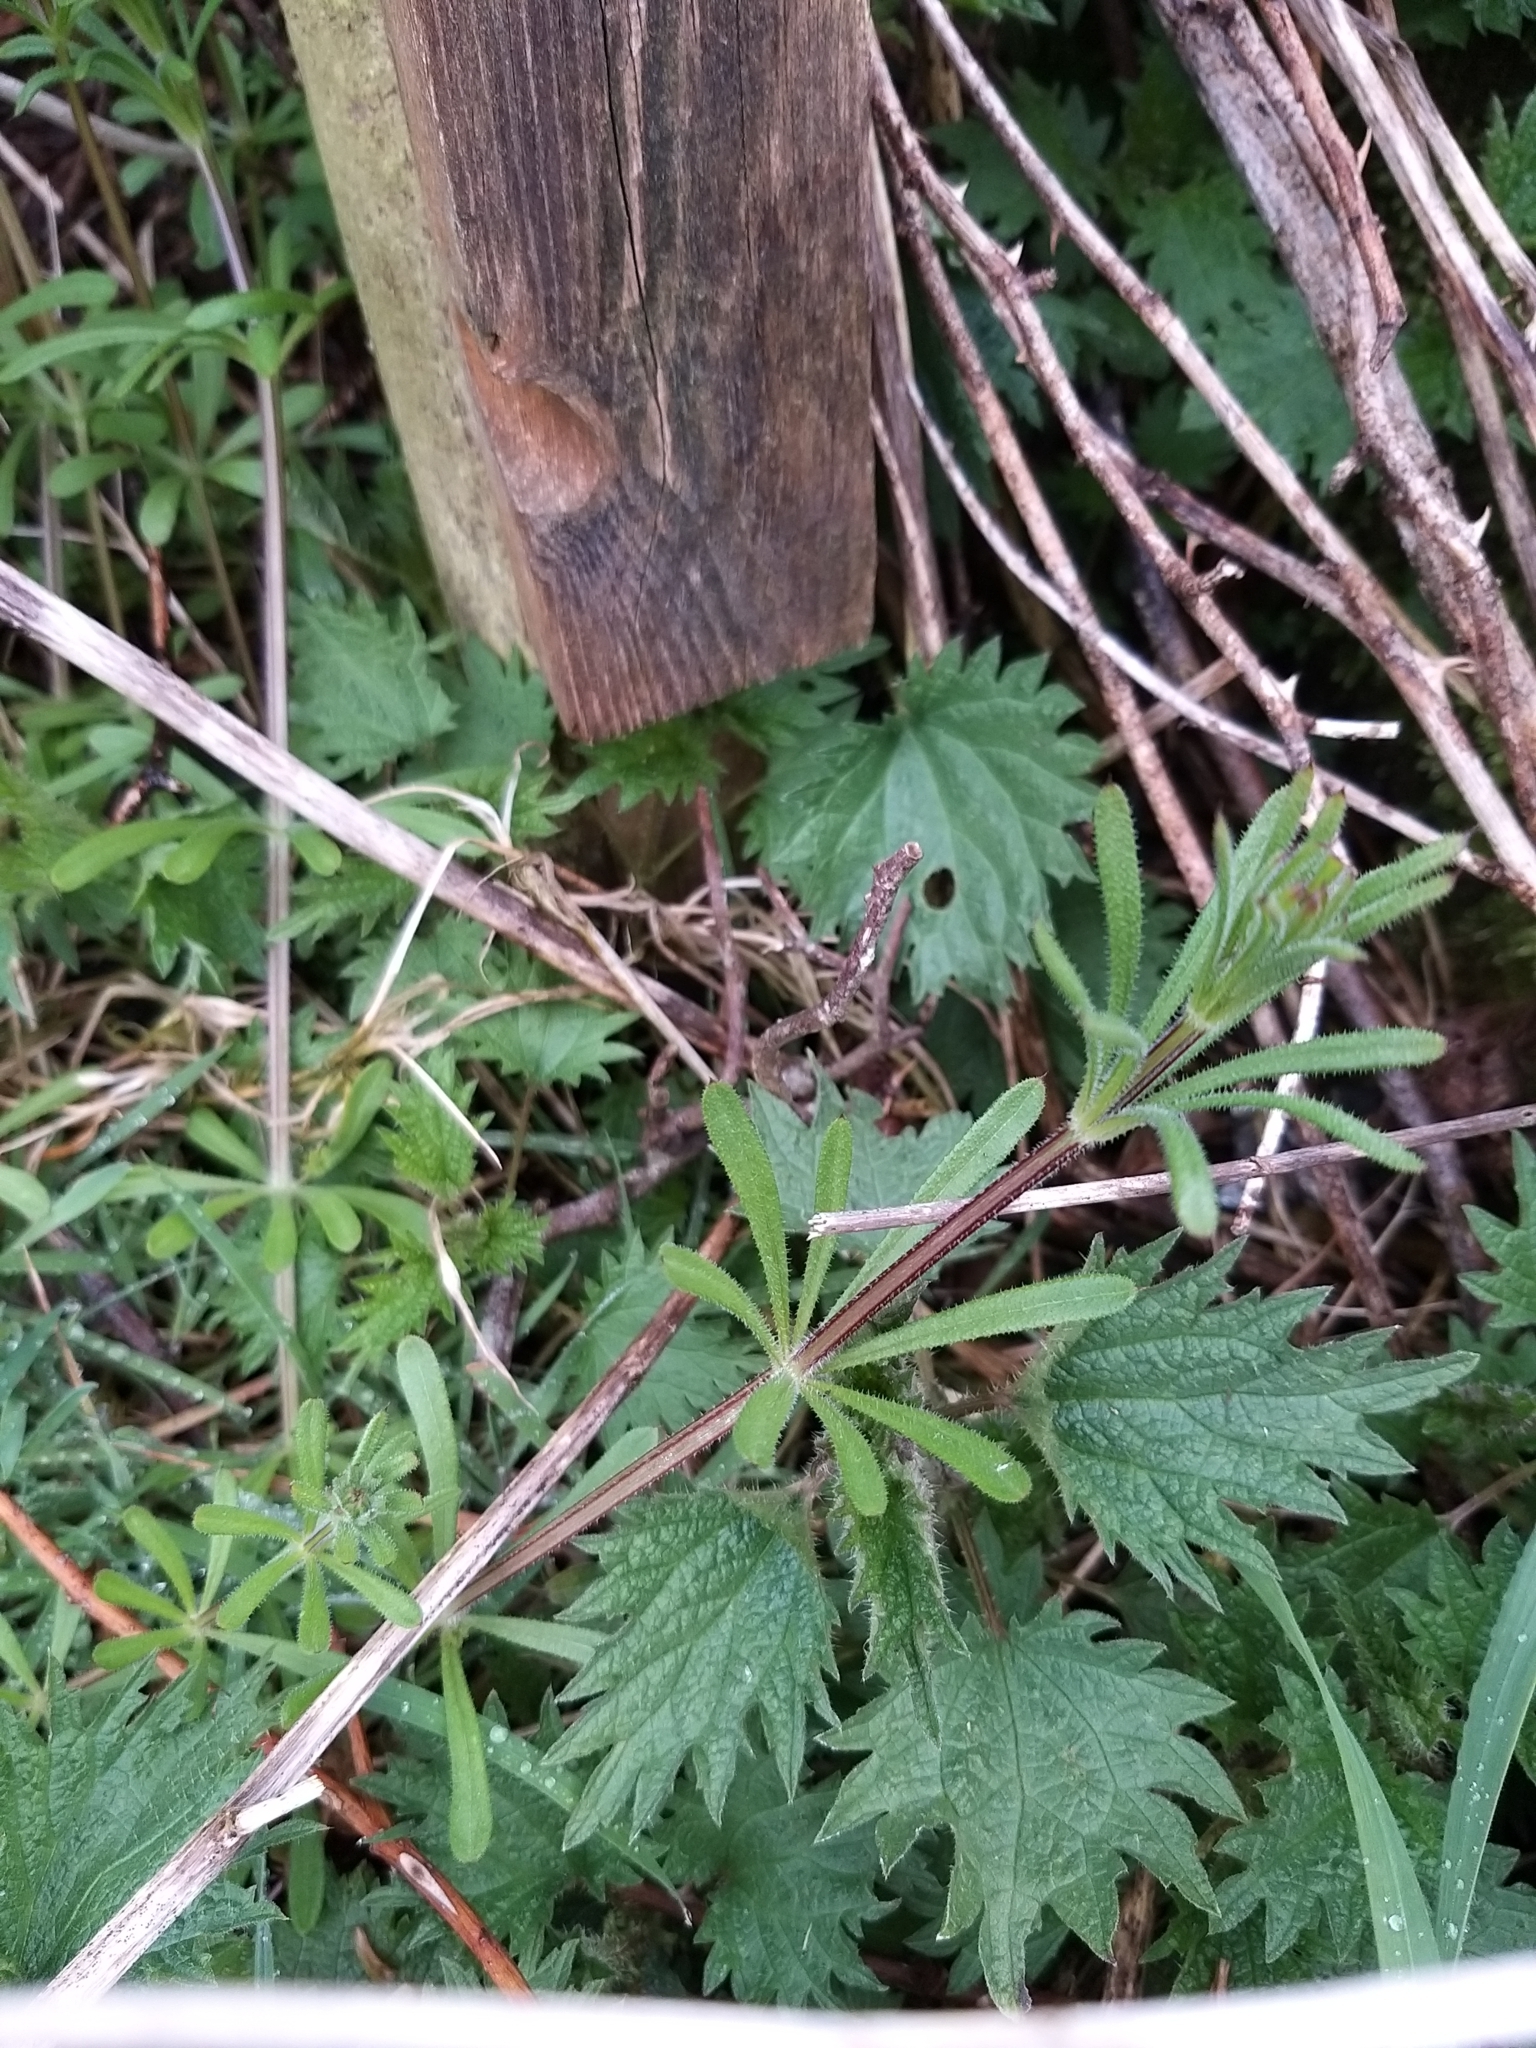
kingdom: Plantae
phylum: Tracheophyta
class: Magnoliopsida
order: Gentianales
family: Rubiaceae
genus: Galium
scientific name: Galium aparine
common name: Cleavers
